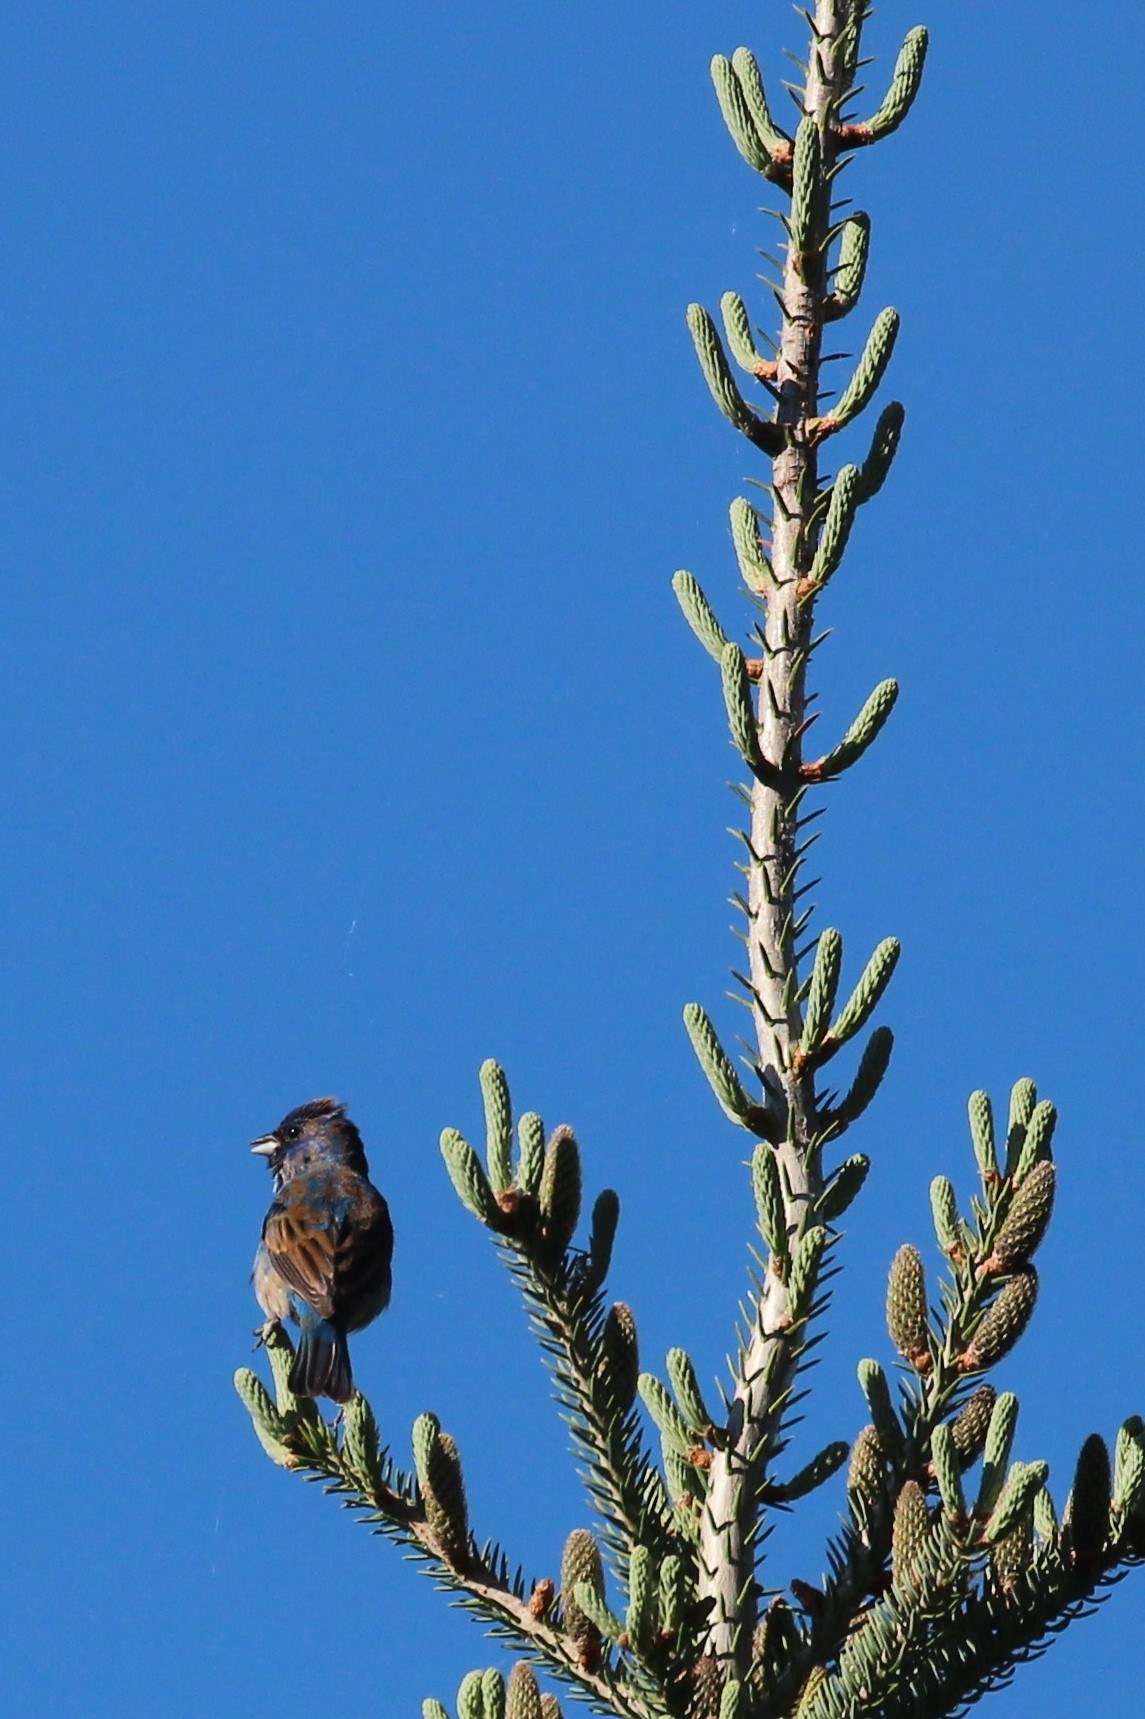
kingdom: Animalia
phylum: Chordata
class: Aves
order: Passeriformes
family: Cardinalidae
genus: Passerina
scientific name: Passerina cyanea
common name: Indigo bunting
